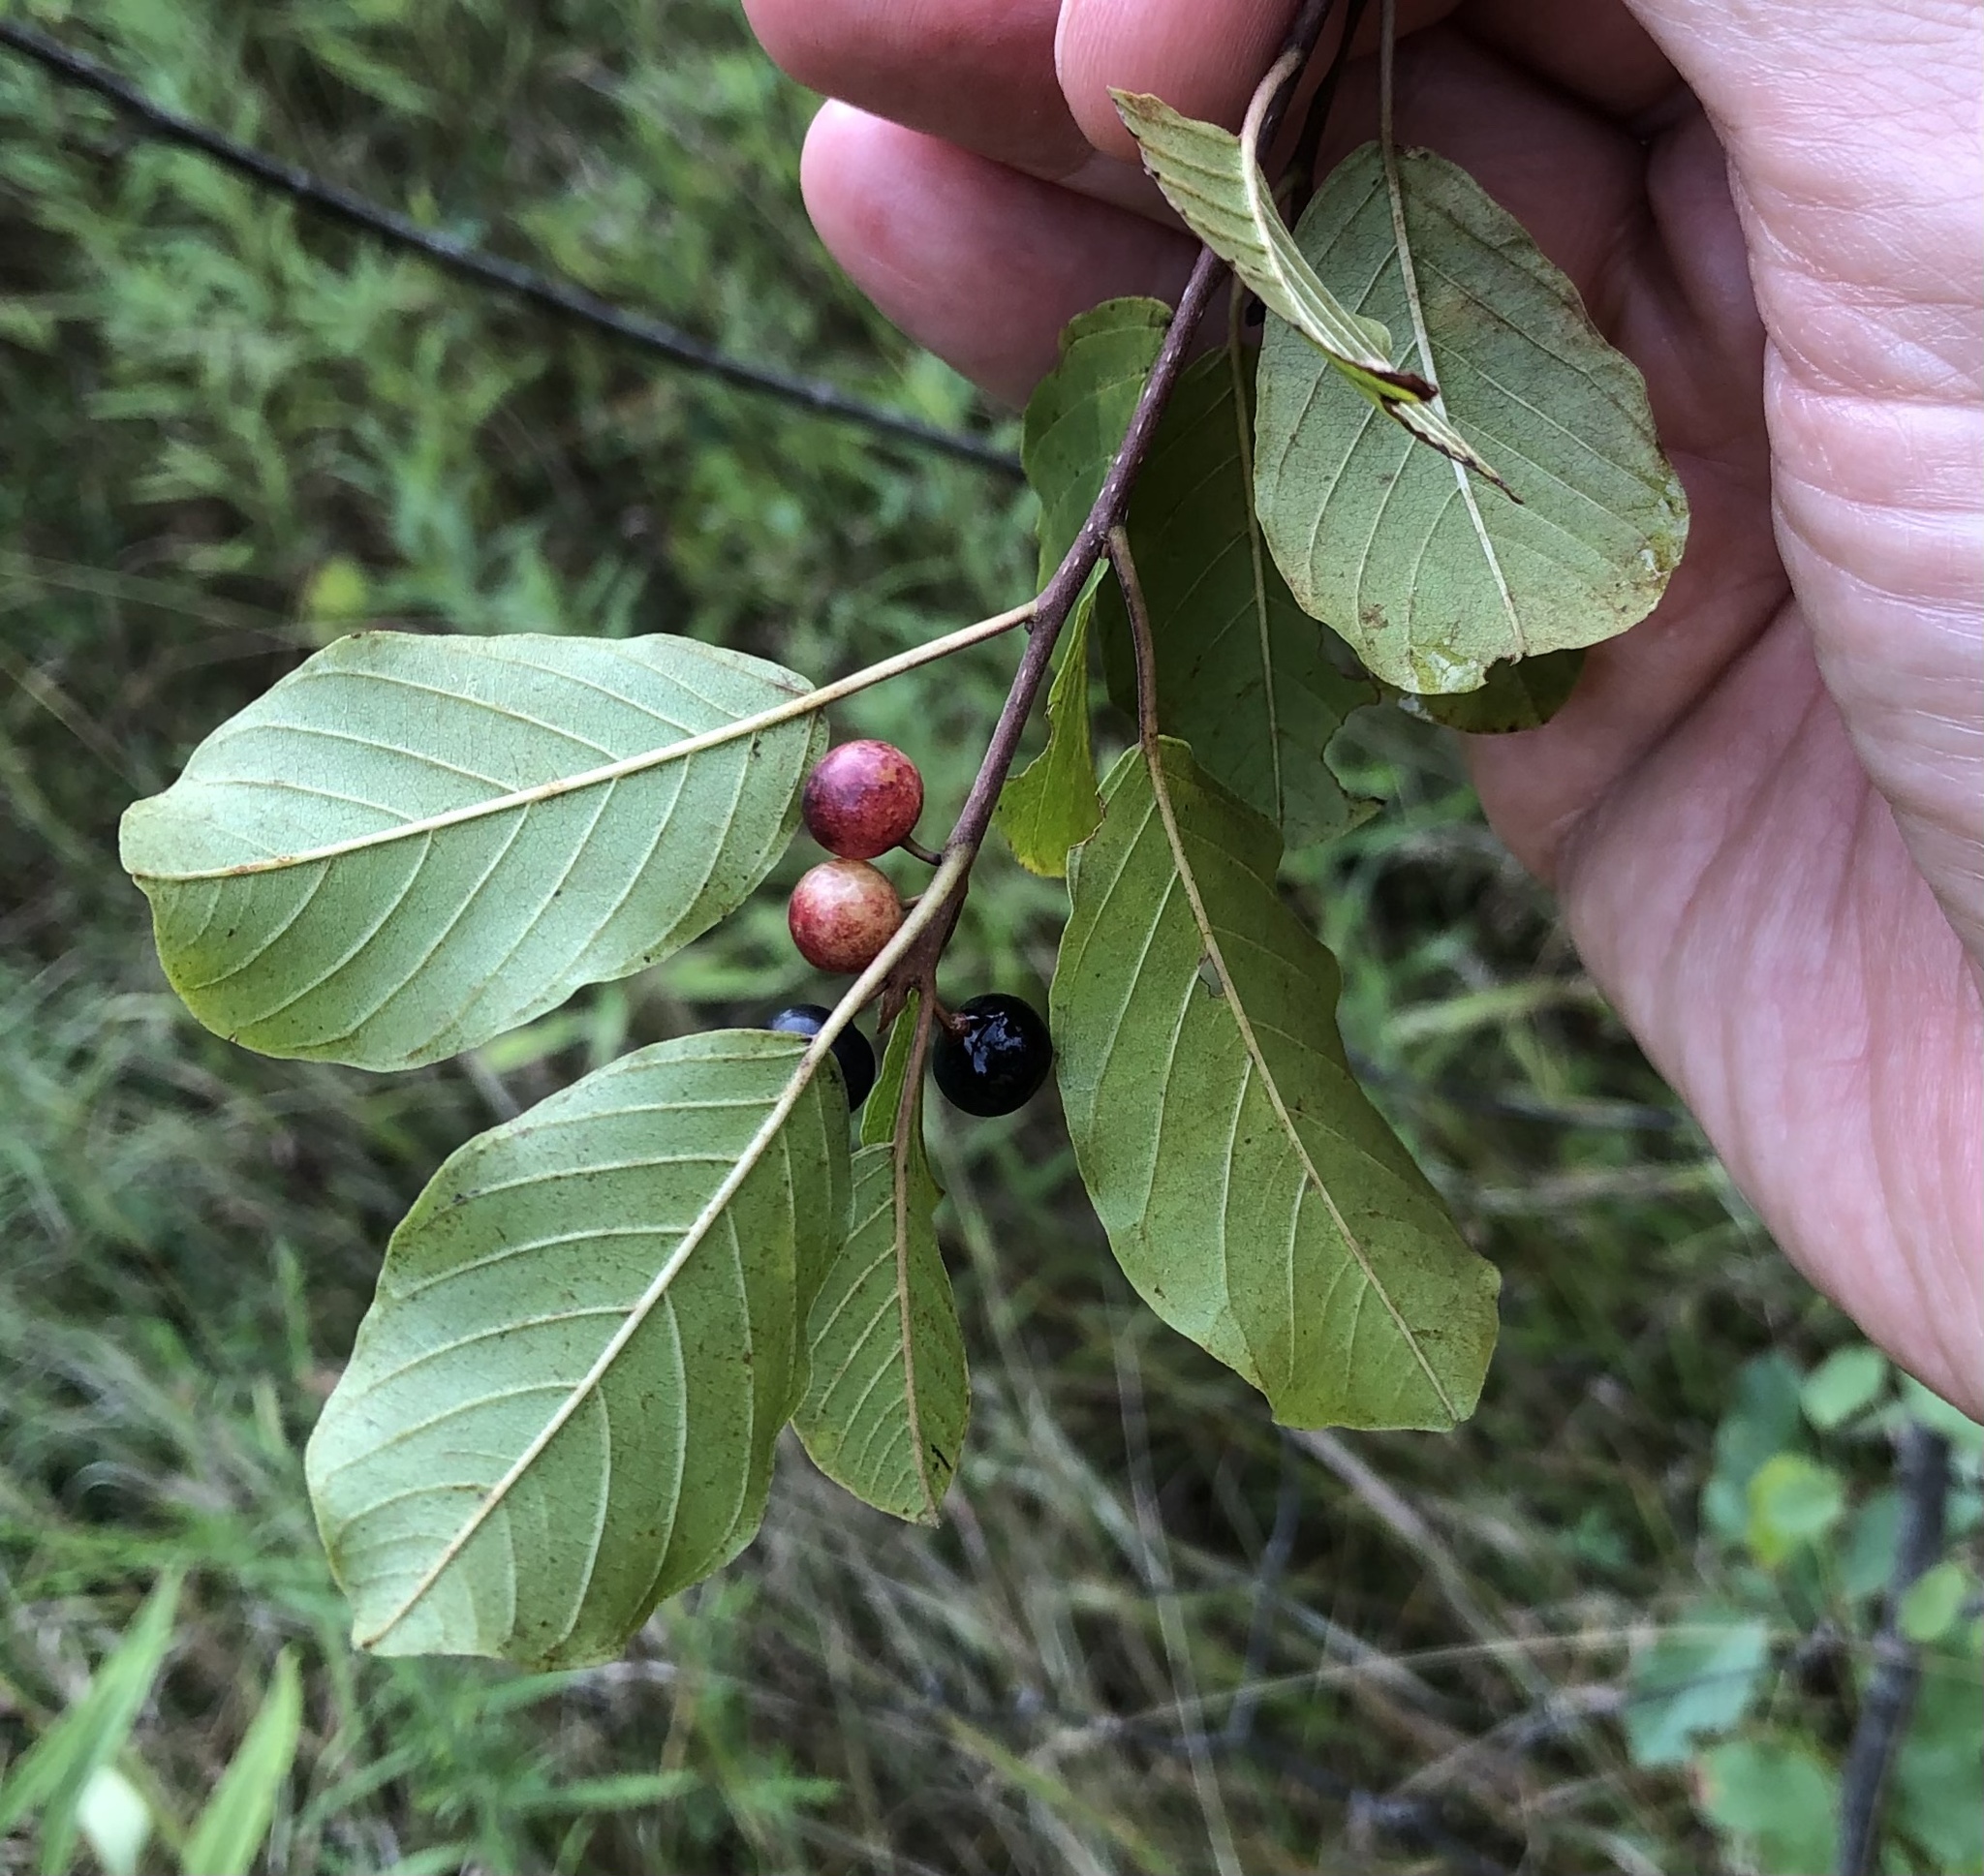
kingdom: Plantae
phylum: Tracheophyta
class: Magnoliopsida
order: Rosales
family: Rhamnaceae
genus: Frangula
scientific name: Frangula alnus
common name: Alder buckthorn
